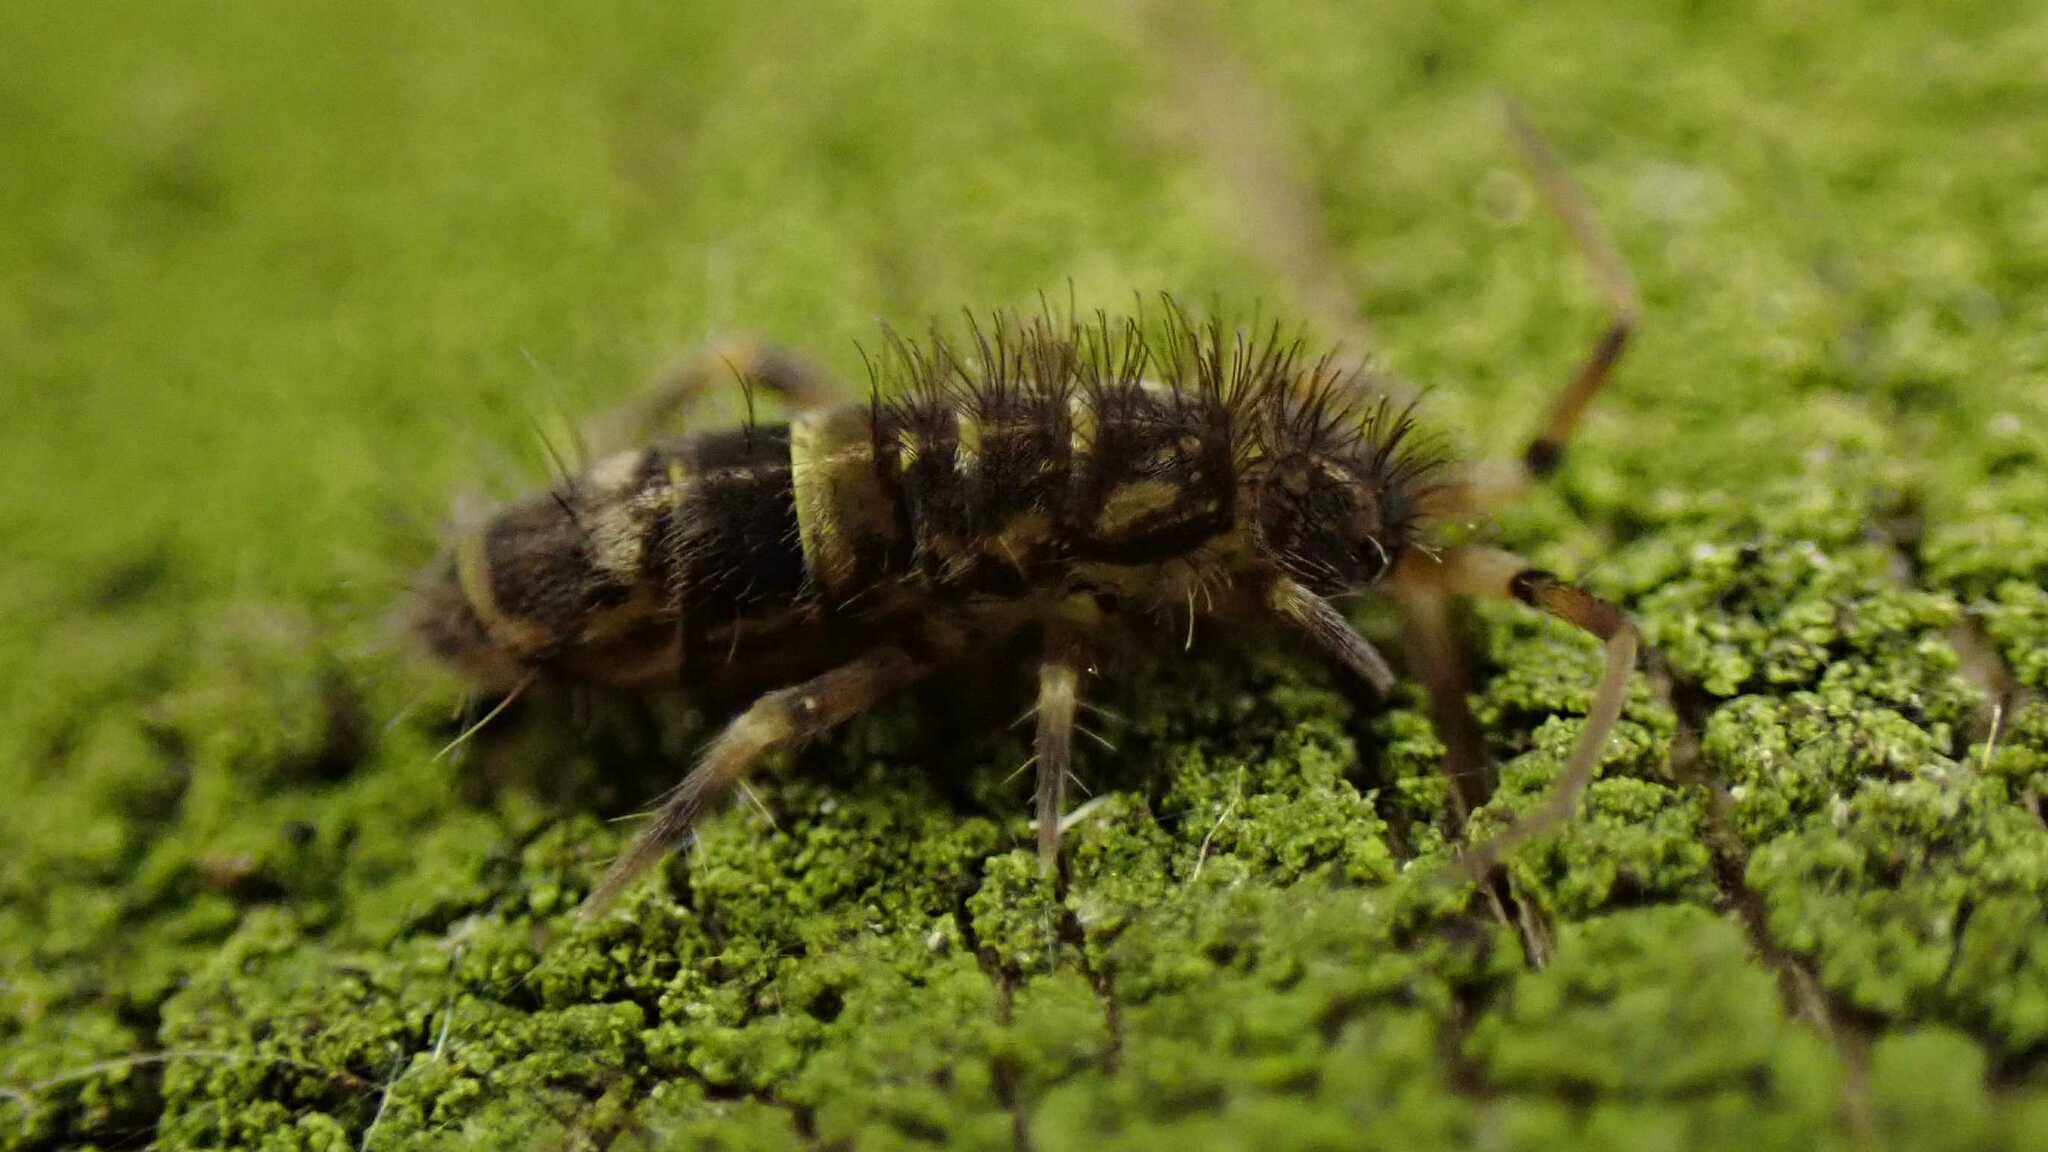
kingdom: Animalia
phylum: Arthropoda
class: Collembola
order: Entomobryomorpha
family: Orchesellidae
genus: Orchesella
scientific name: Orchesella cincta
